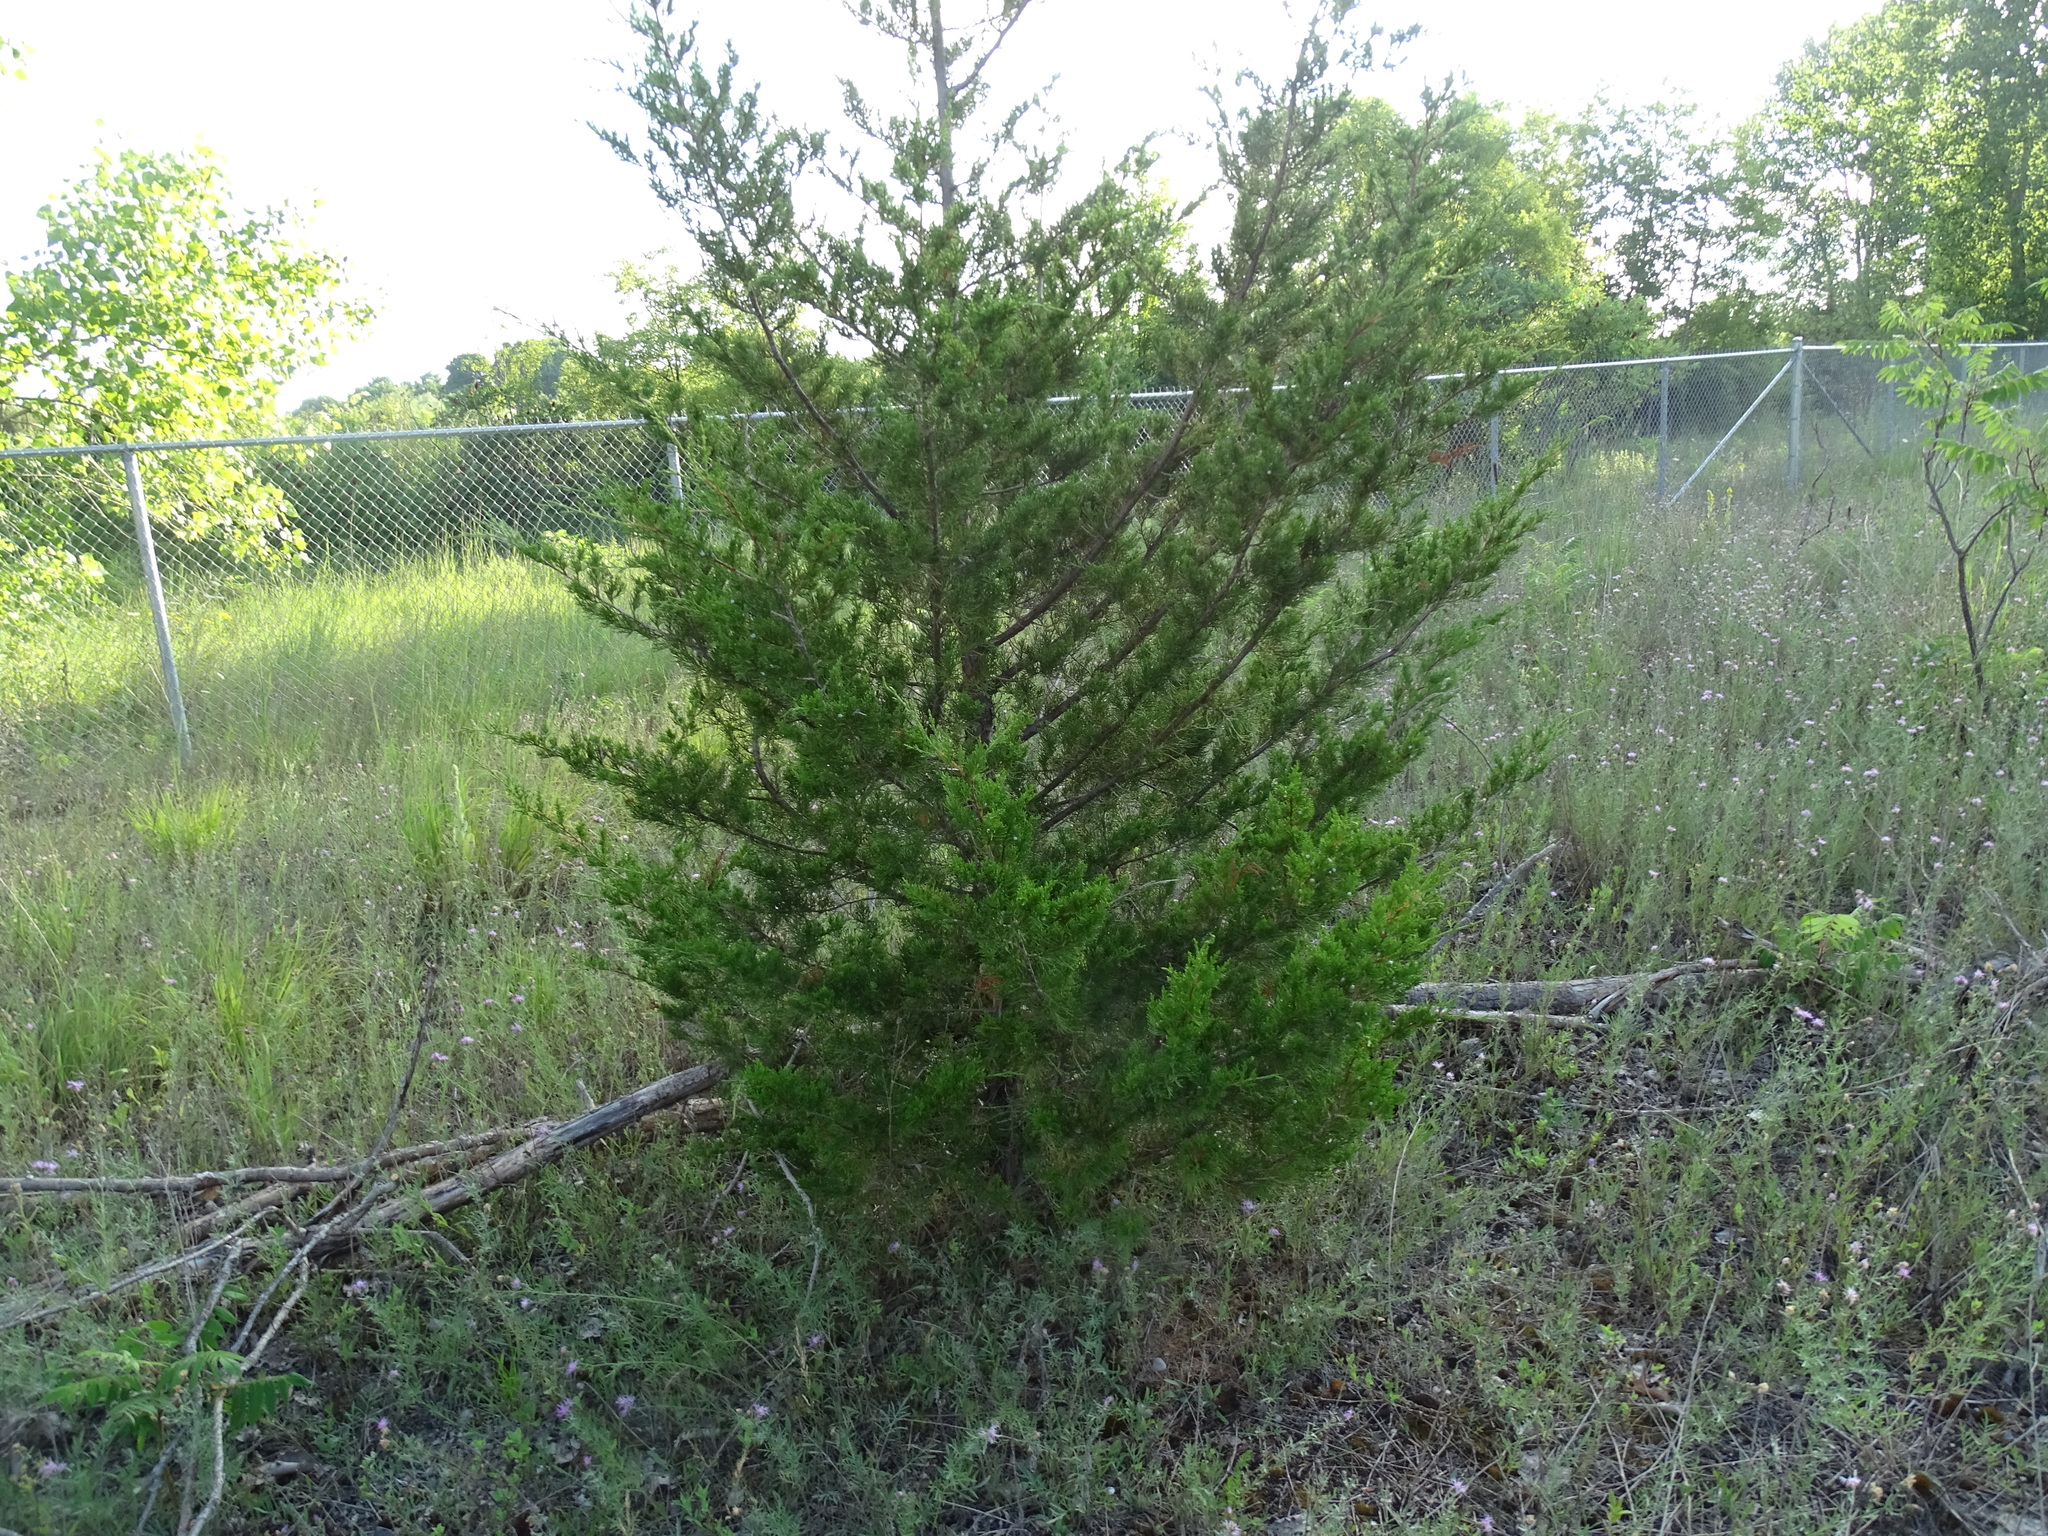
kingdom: Plantae
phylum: Tracheophyta
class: Pinopsida
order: Pinales
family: Cupressaceae
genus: Juniperus
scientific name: Juniperus virginiana
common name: Red juniper
